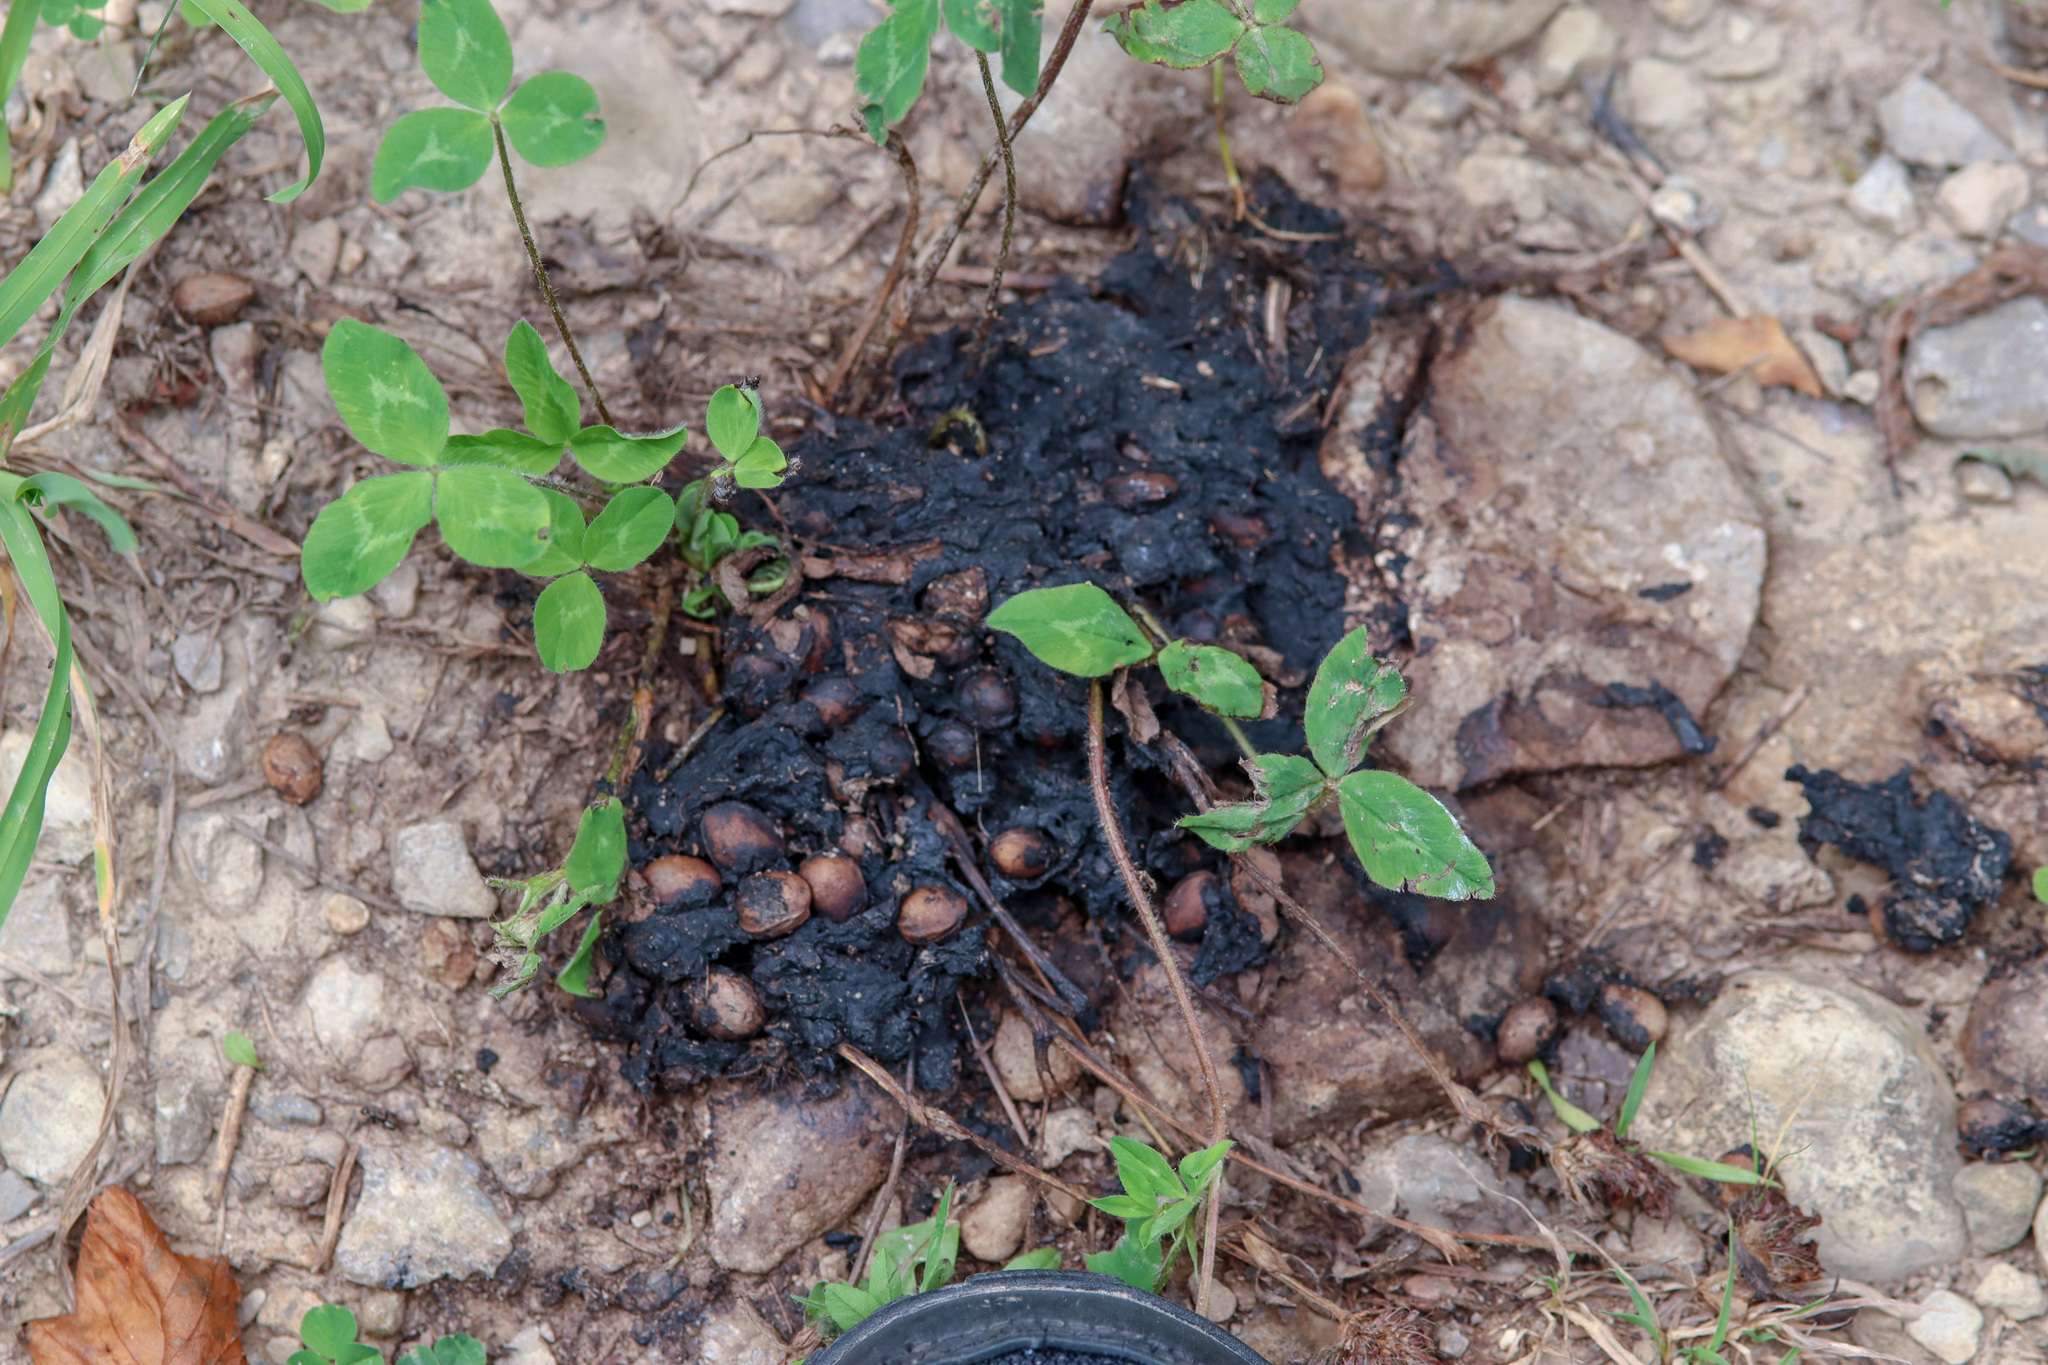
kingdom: Animalia
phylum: Chordata
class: Mammalia
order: Carnivora
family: Ursidae
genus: Ursus
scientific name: Ursus americanus
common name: American black bear
